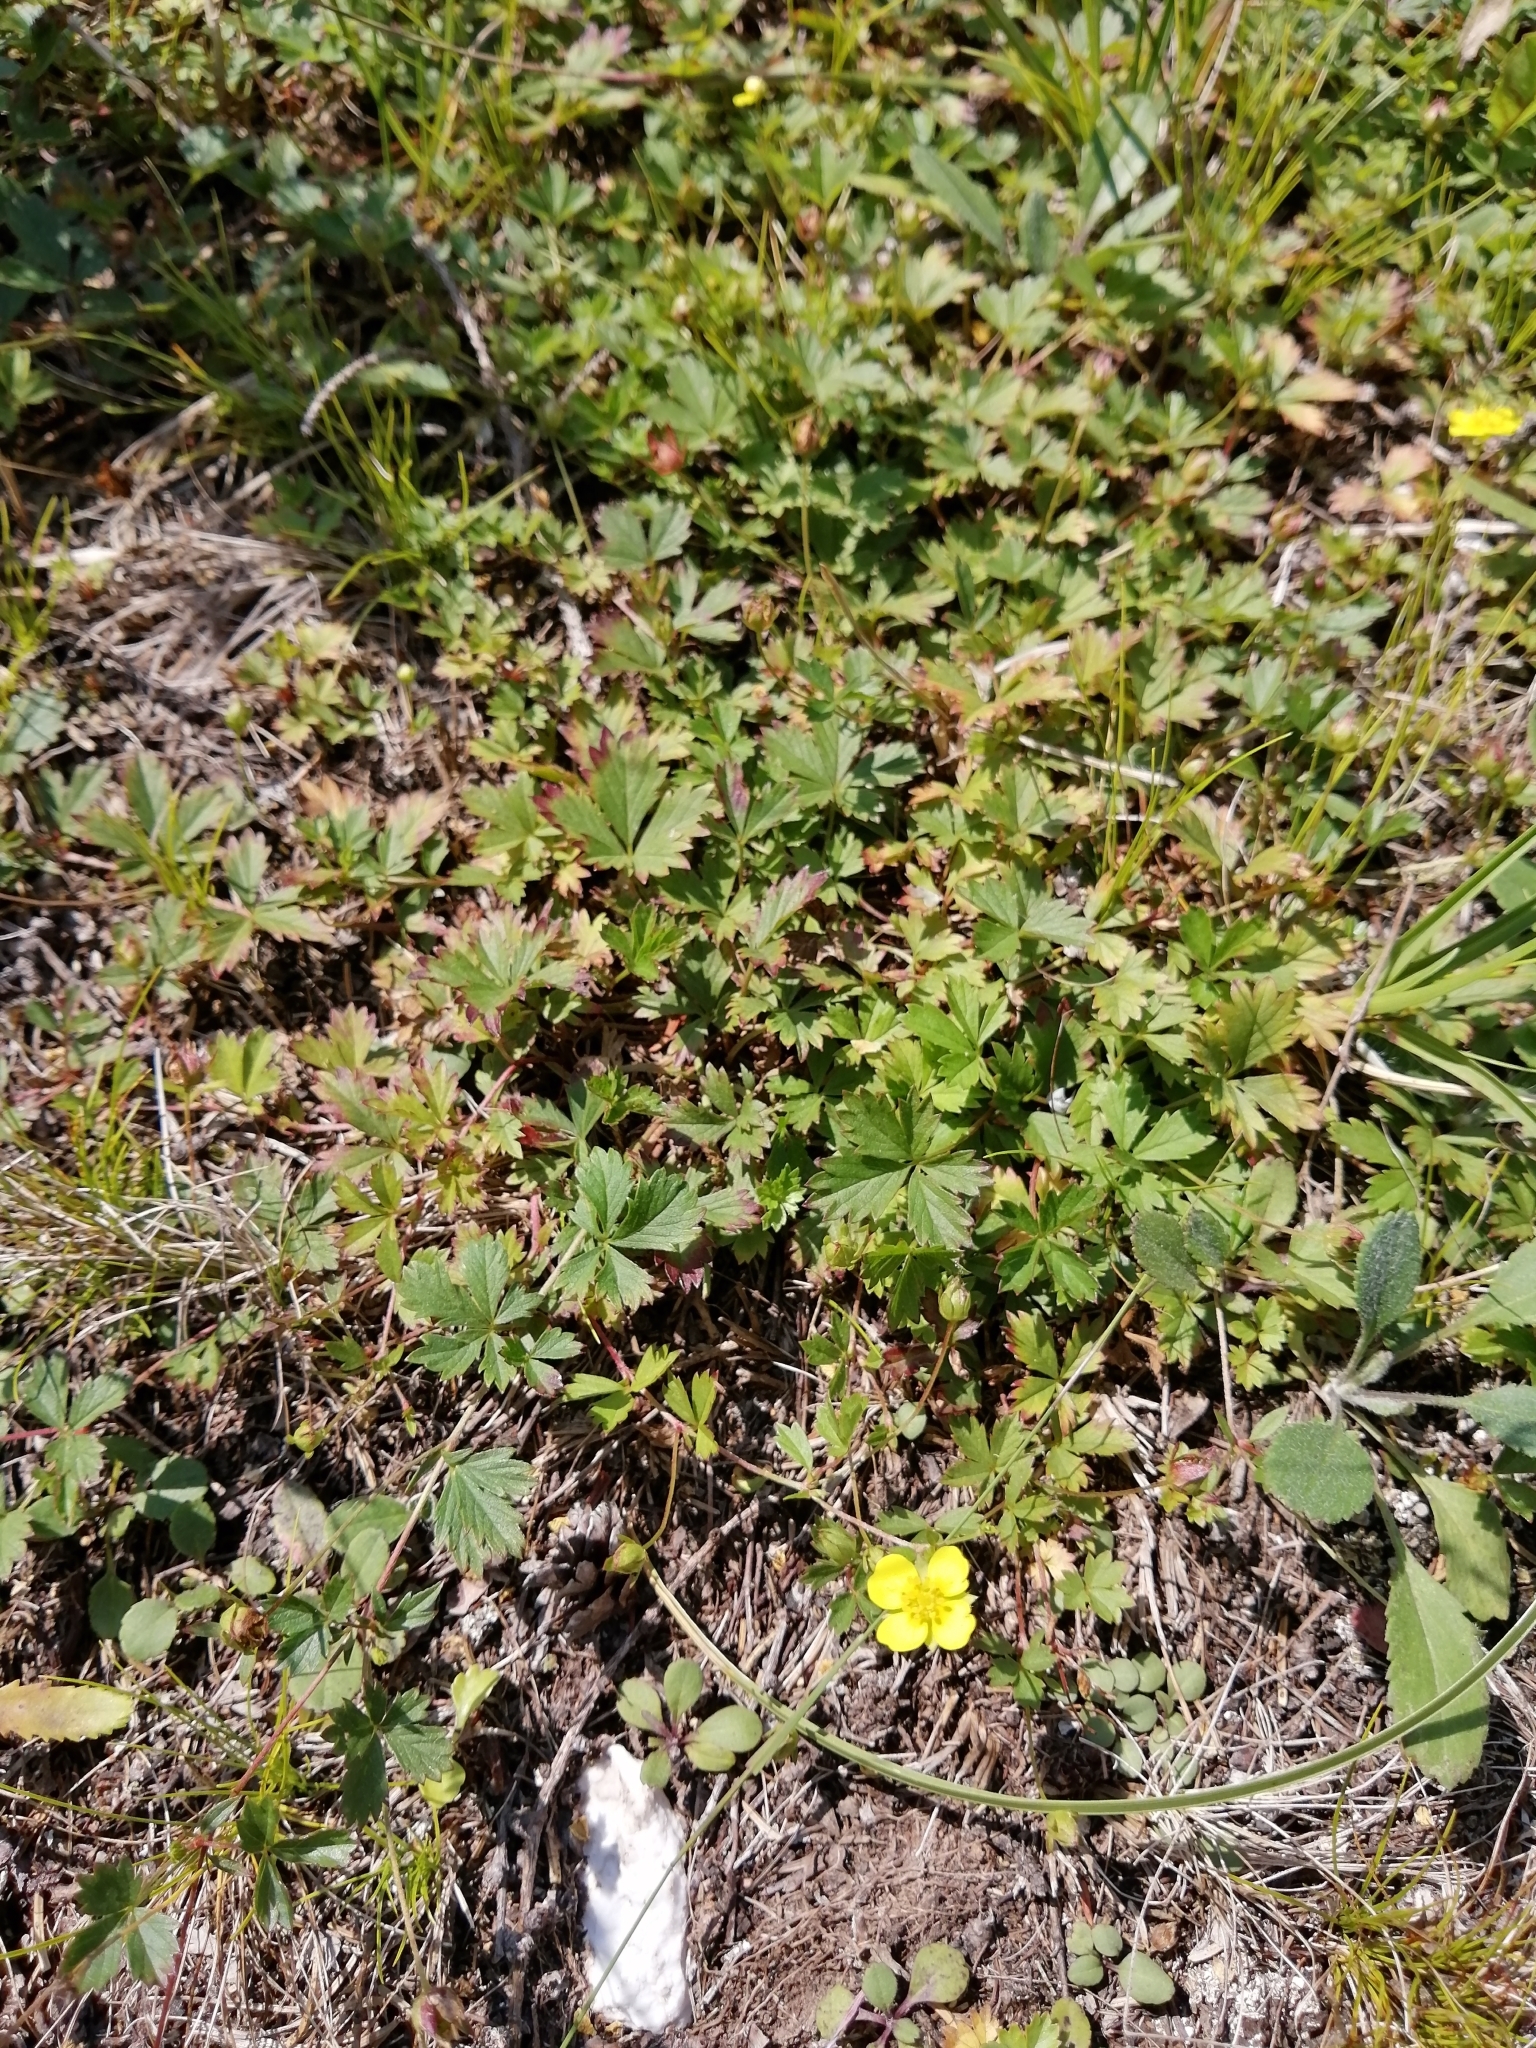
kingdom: Plantae
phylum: Tracheophyta
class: Magnoliopsida
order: Rosales
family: Rosaceae
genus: Potentilla
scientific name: Potentilla anglica
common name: Trailing tormentil
